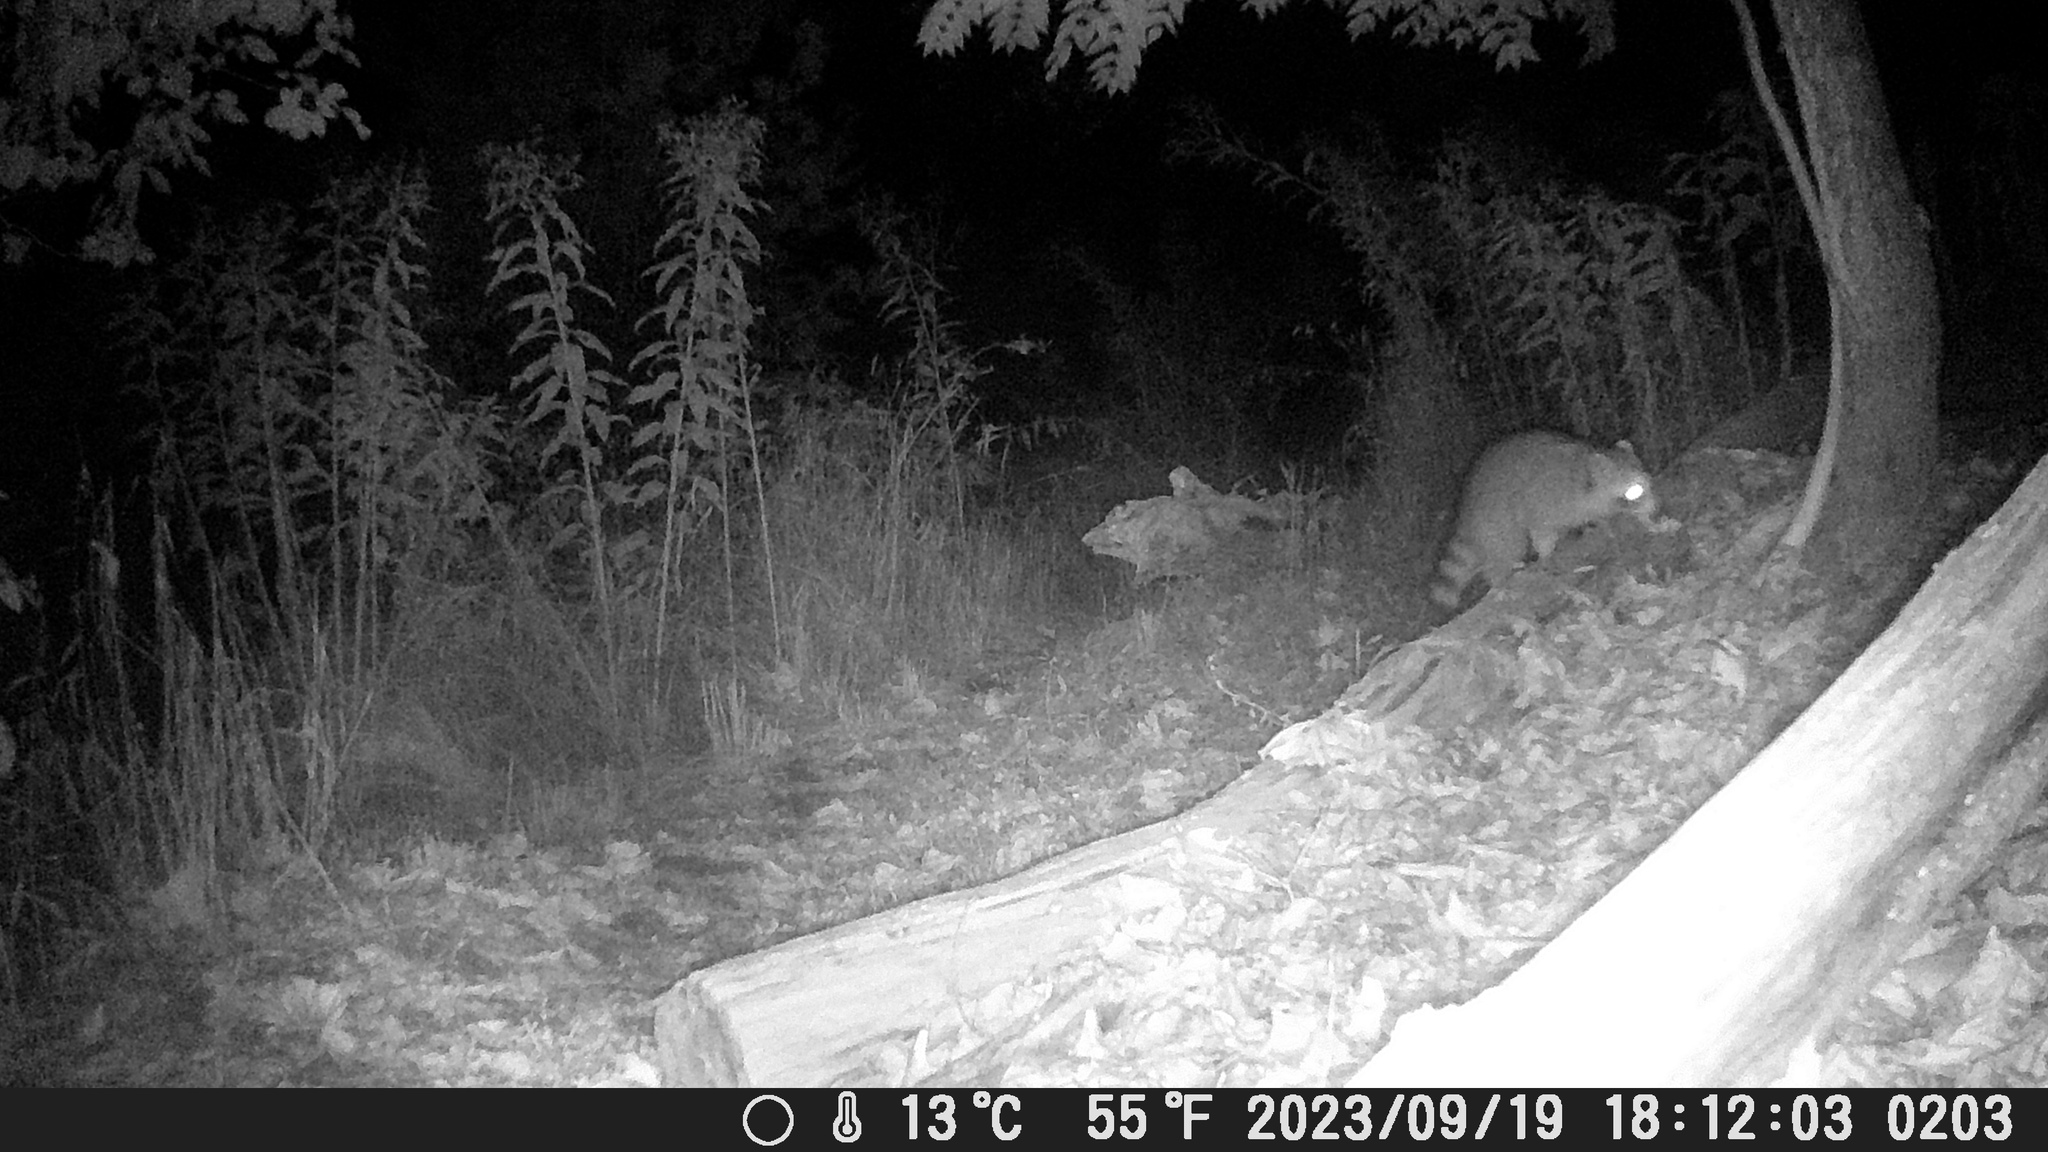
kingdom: Animalia
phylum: Chordata
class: Mammalia
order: Carnivora
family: Procyonidae
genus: Procyon
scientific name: Procyon lotor
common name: Raccoon
